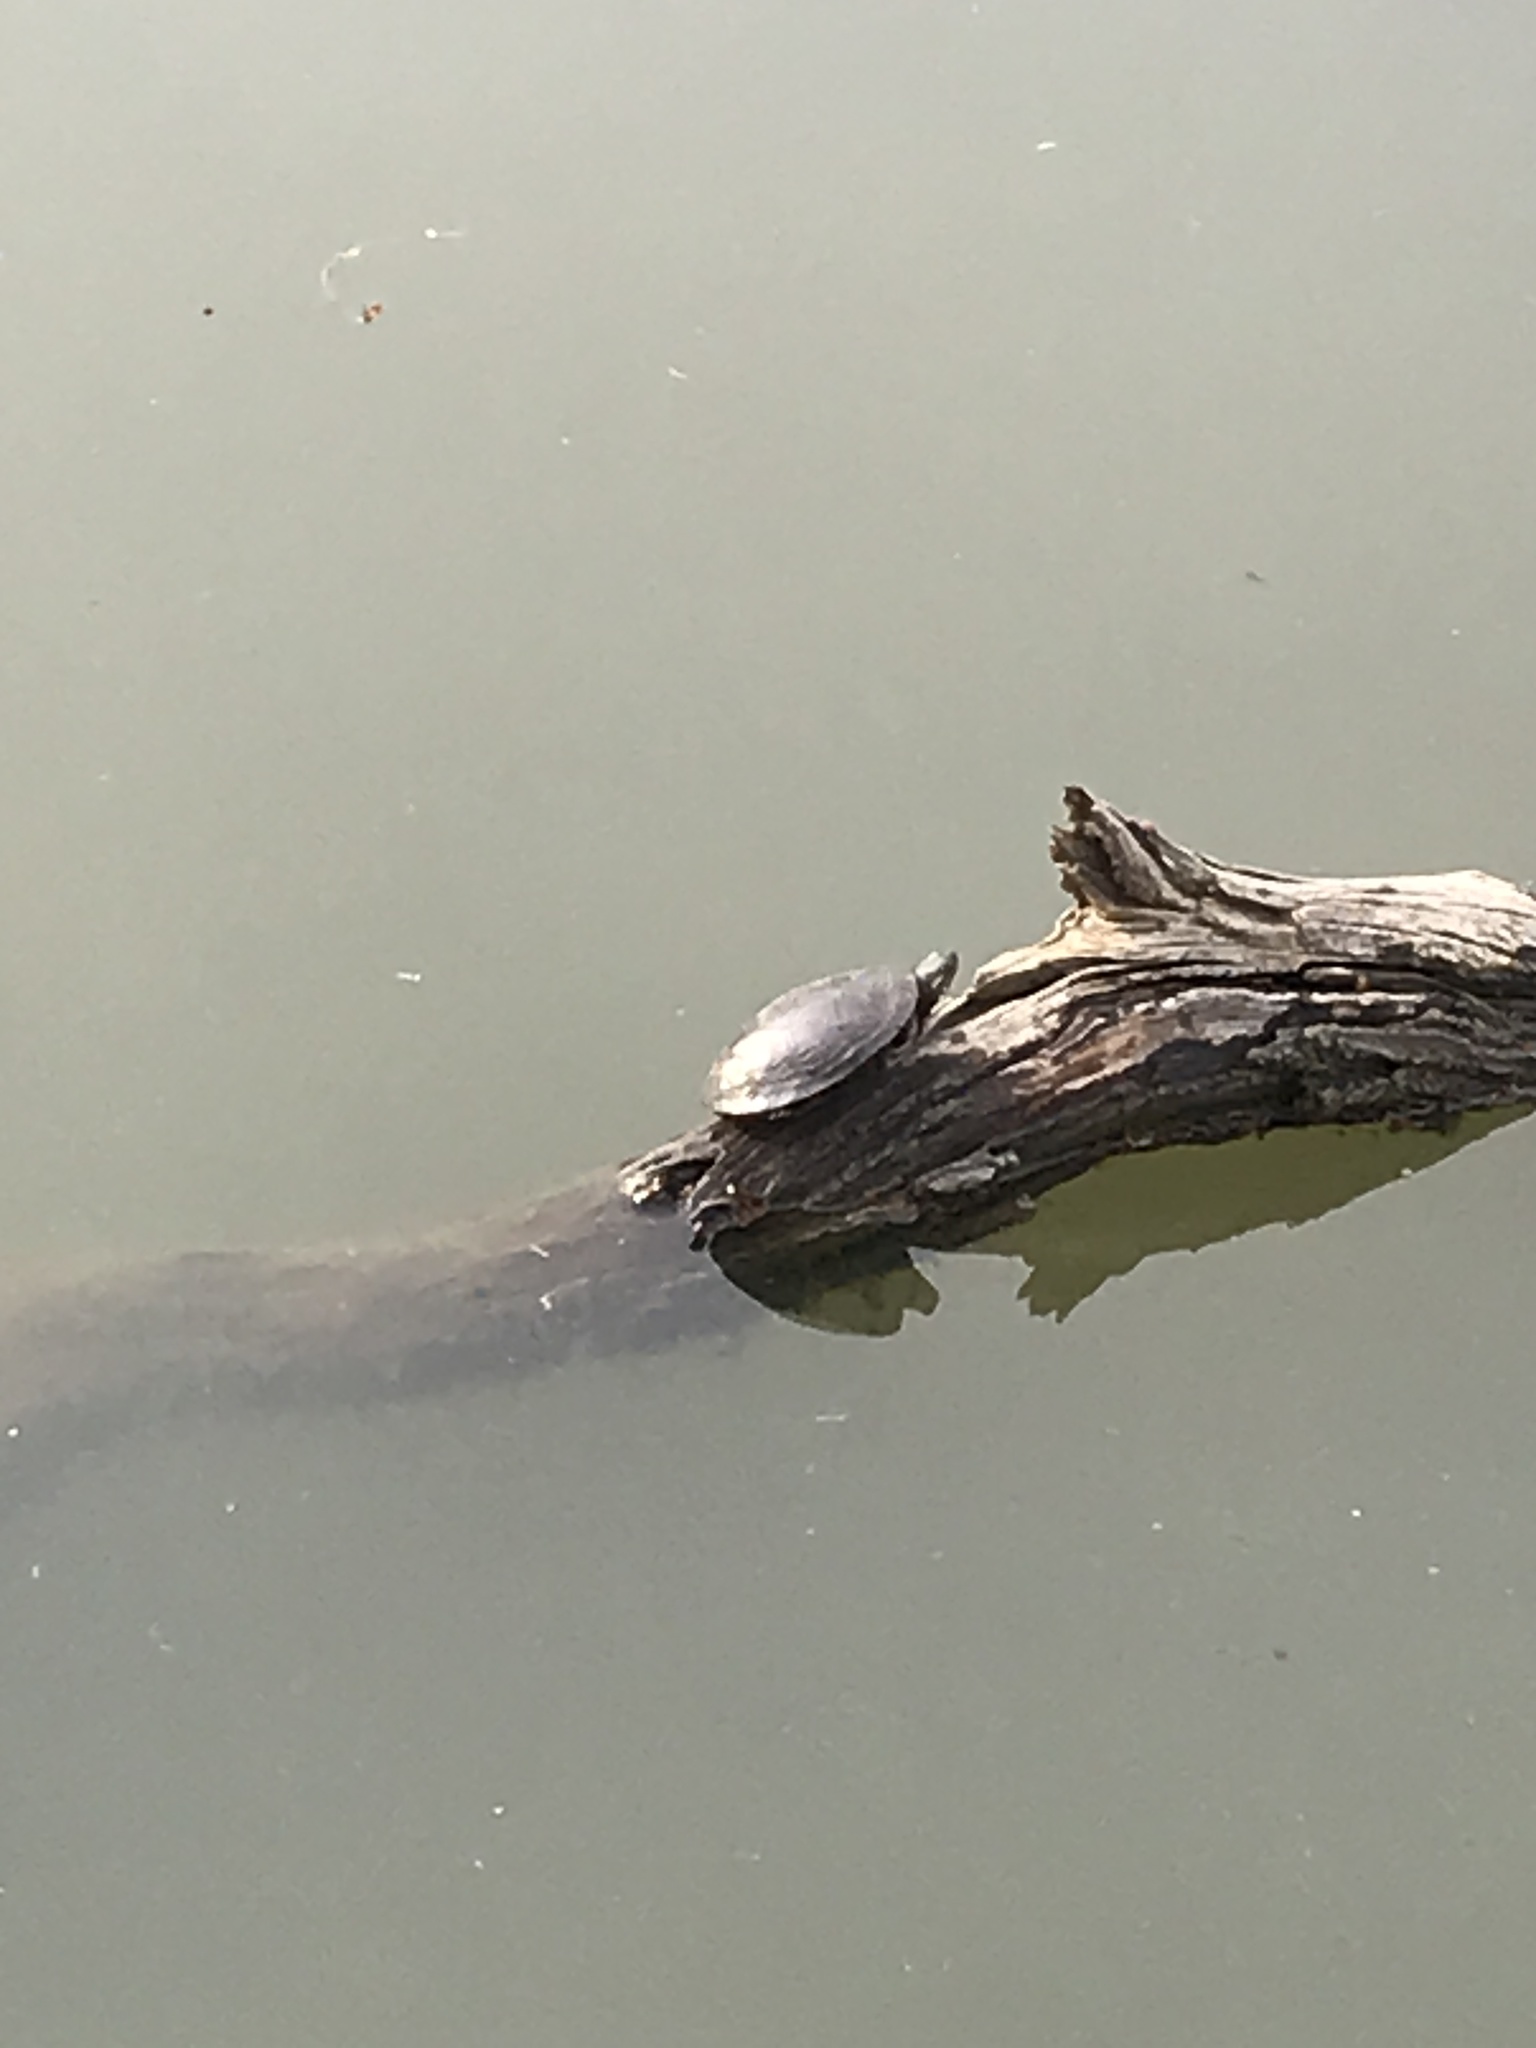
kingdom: Animalia
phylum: Chordata
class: Testudines
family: Emydidae
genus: Chrysemys
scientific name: Chrysemys picta
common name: Painted turtle
